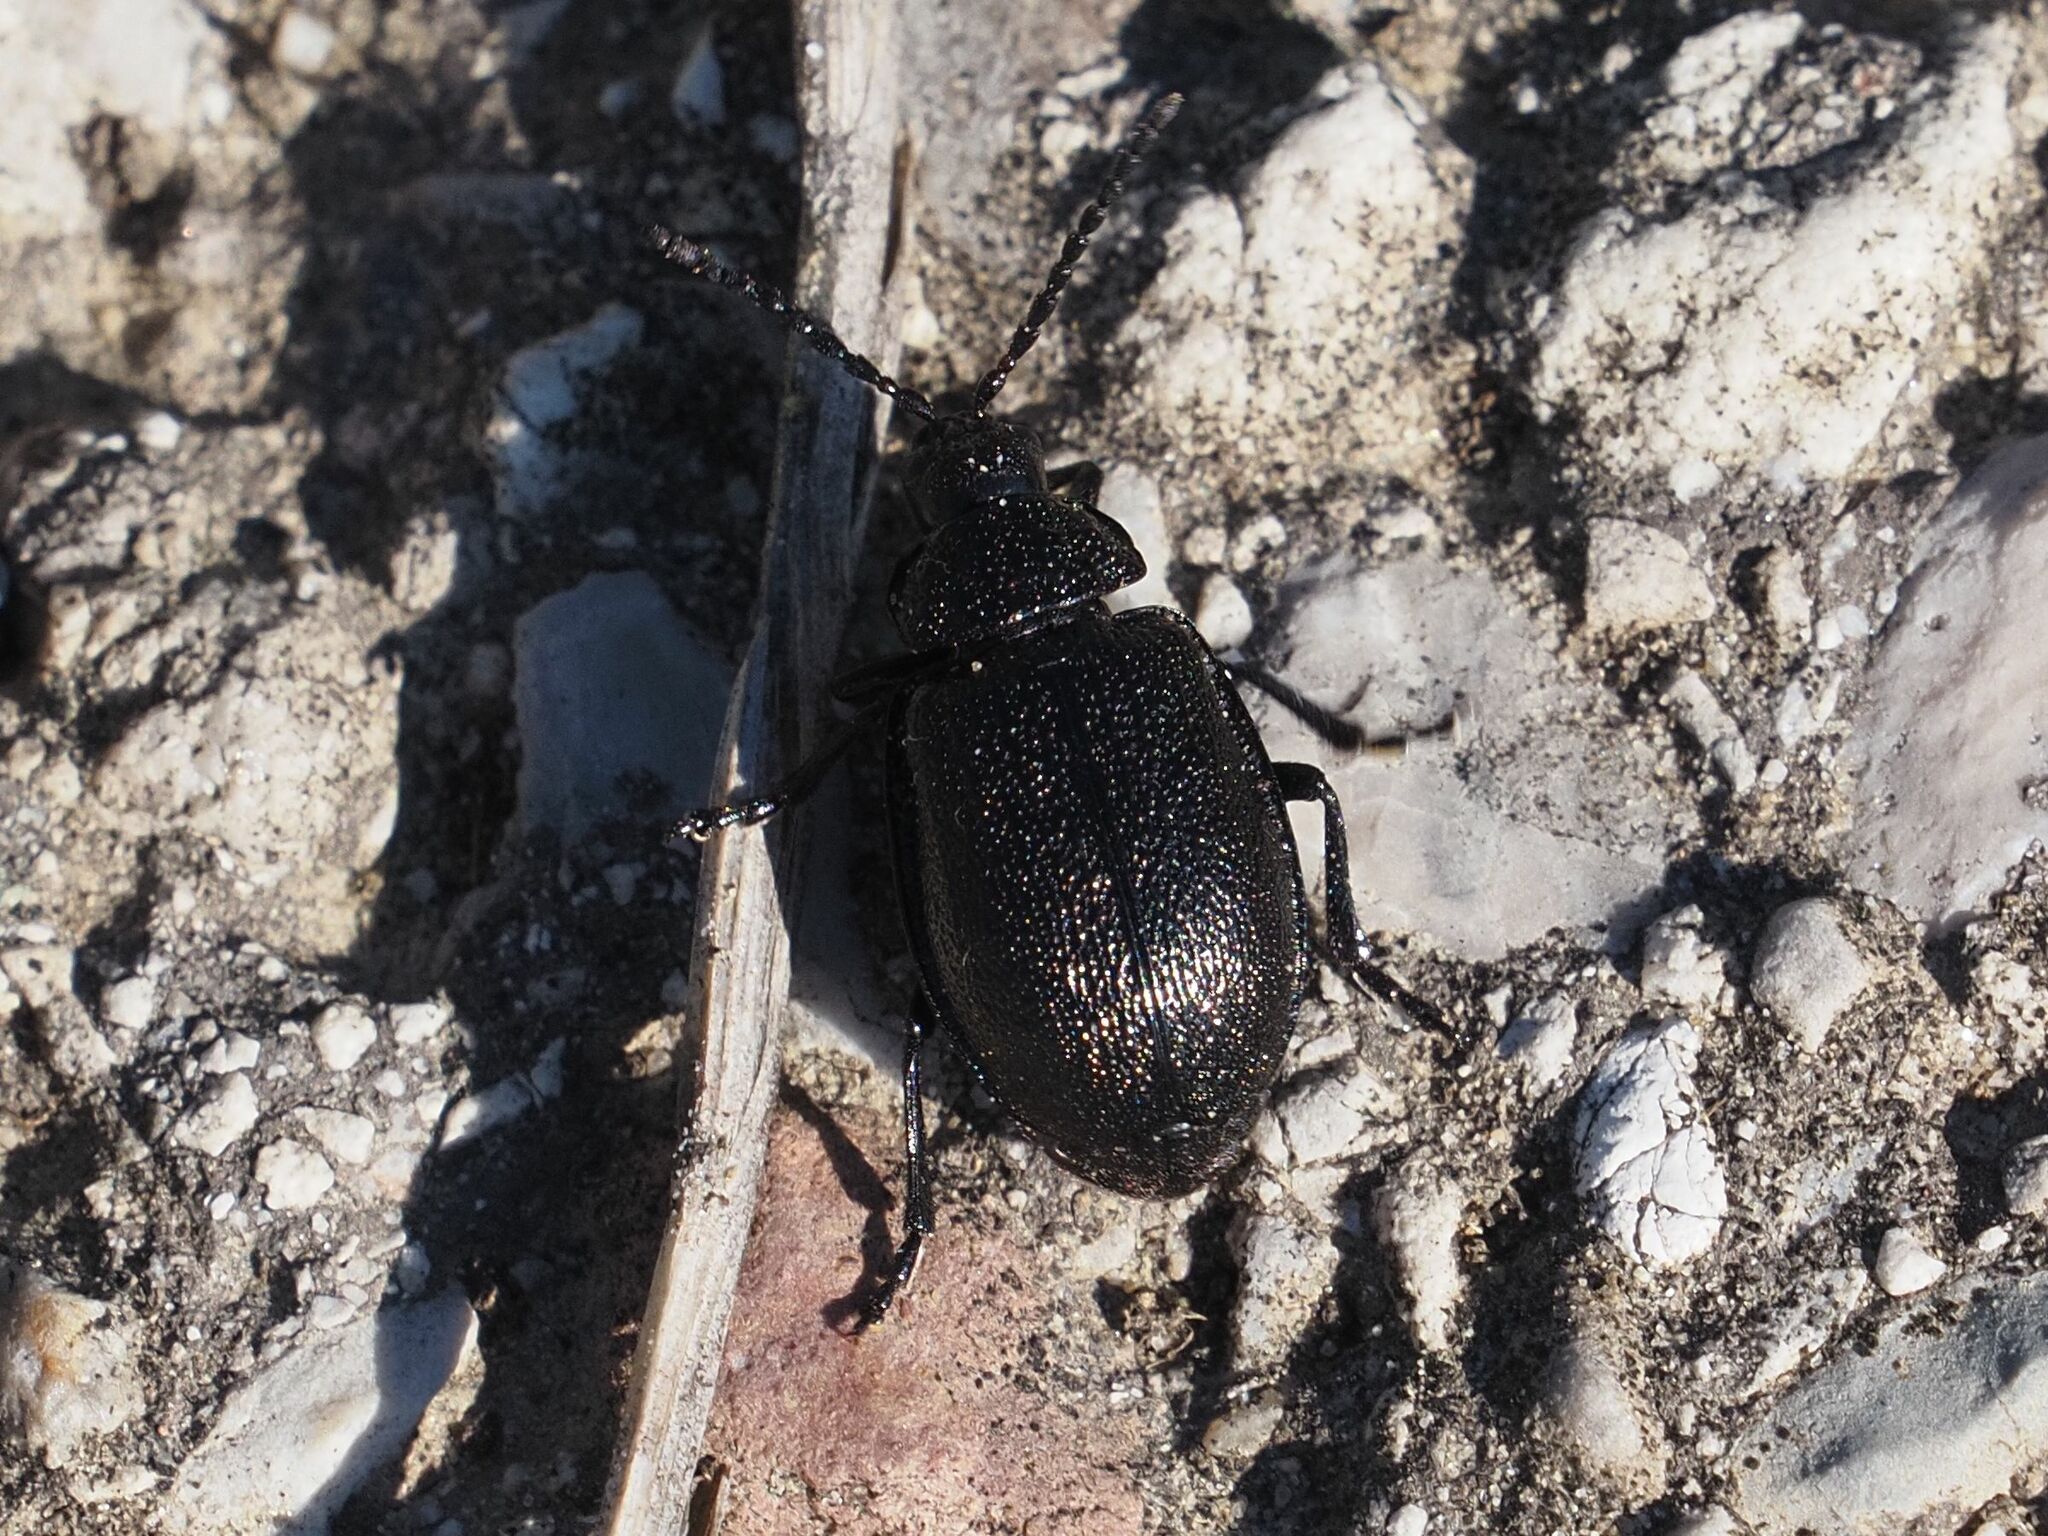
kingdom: Animalia
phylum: Arthropoda
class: Insecta
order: Coleoptera
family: Chrysomelidae
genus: Galeruca
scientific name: Galeruca tanaceti
